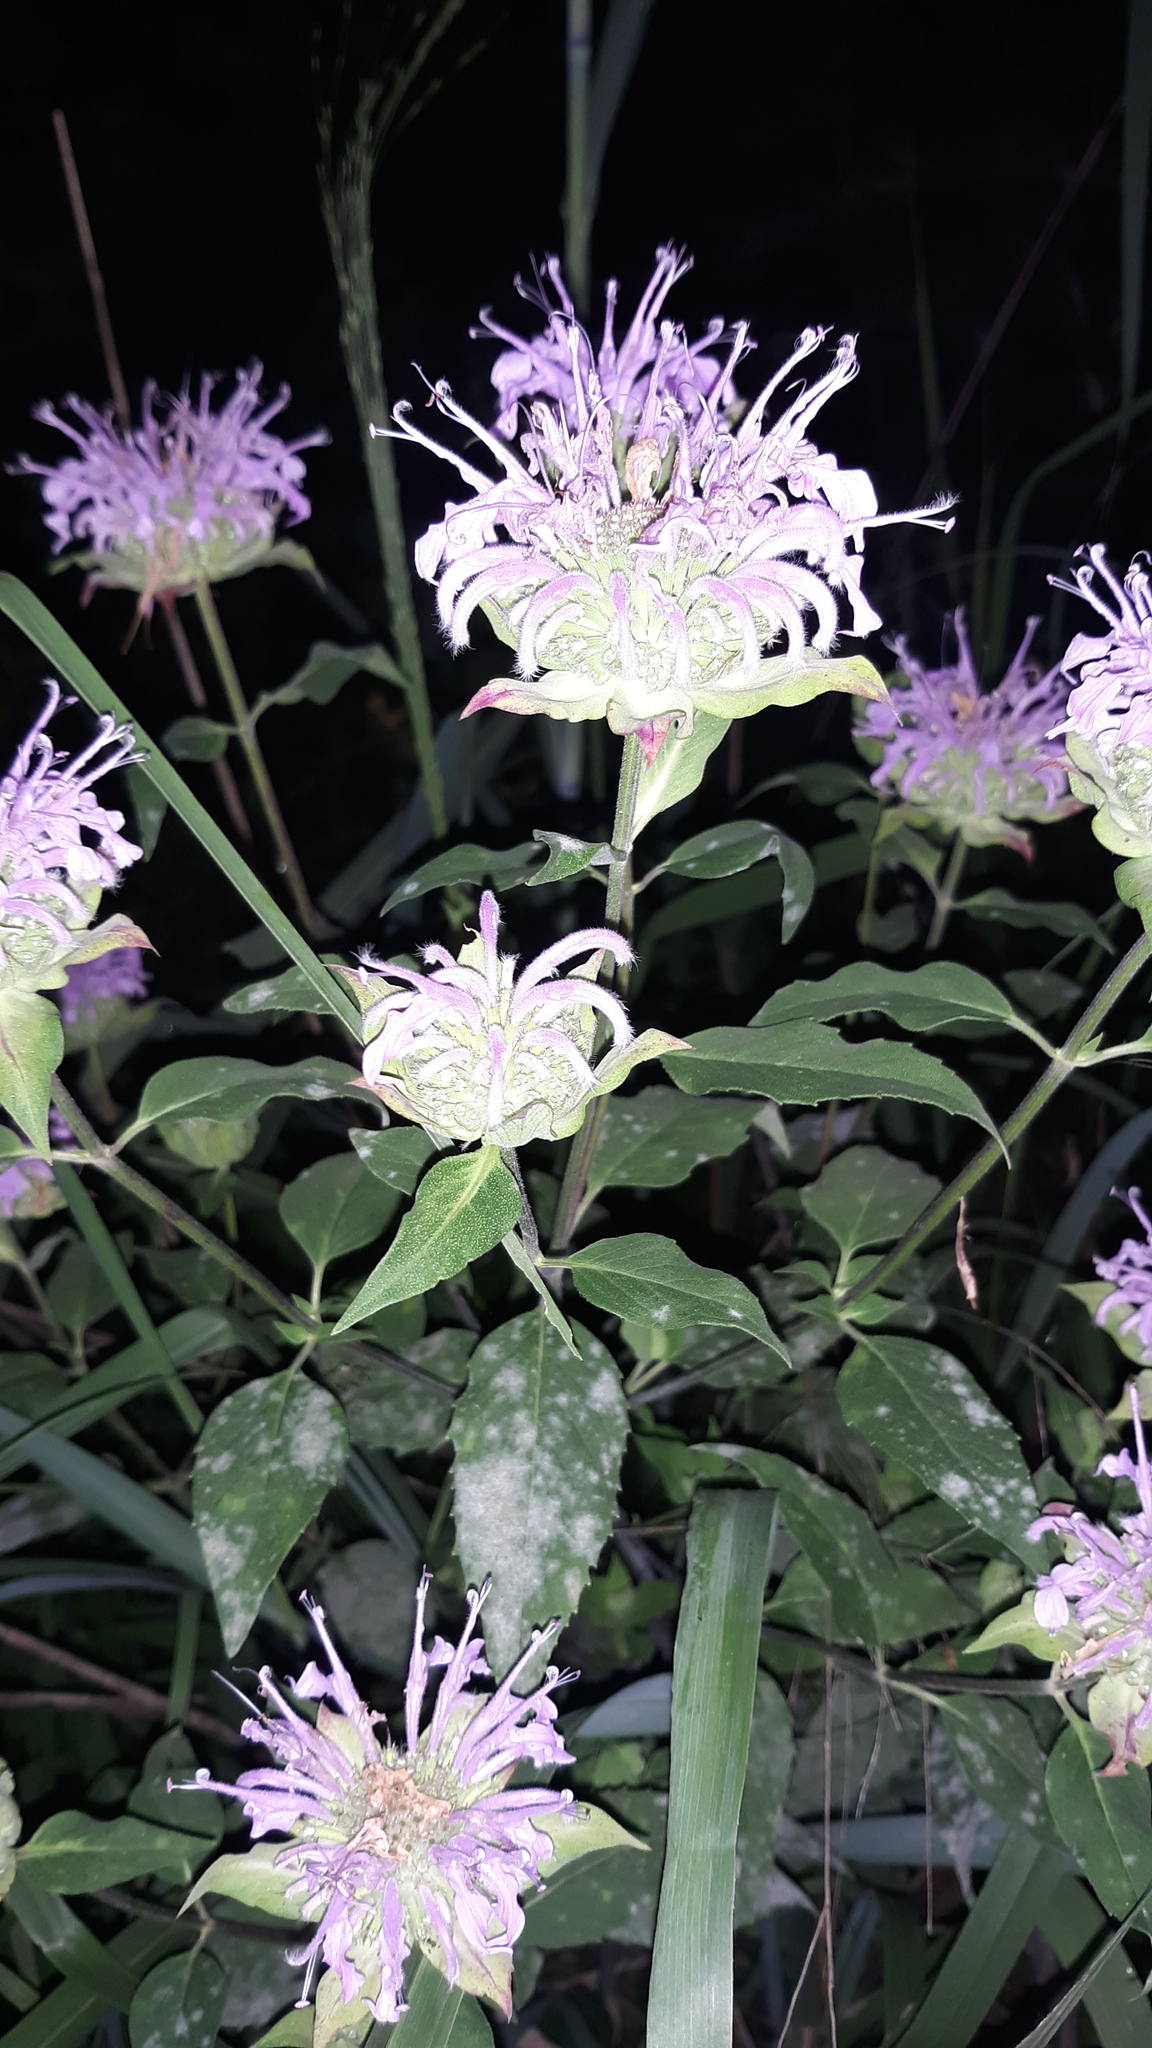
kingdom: Plantae
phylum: Tracheophyta
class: Magnoliopsida
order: Lamiales
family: Lamiaceae
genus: Monarda
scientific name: Monarda fistulosa
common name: Purple beebalm
